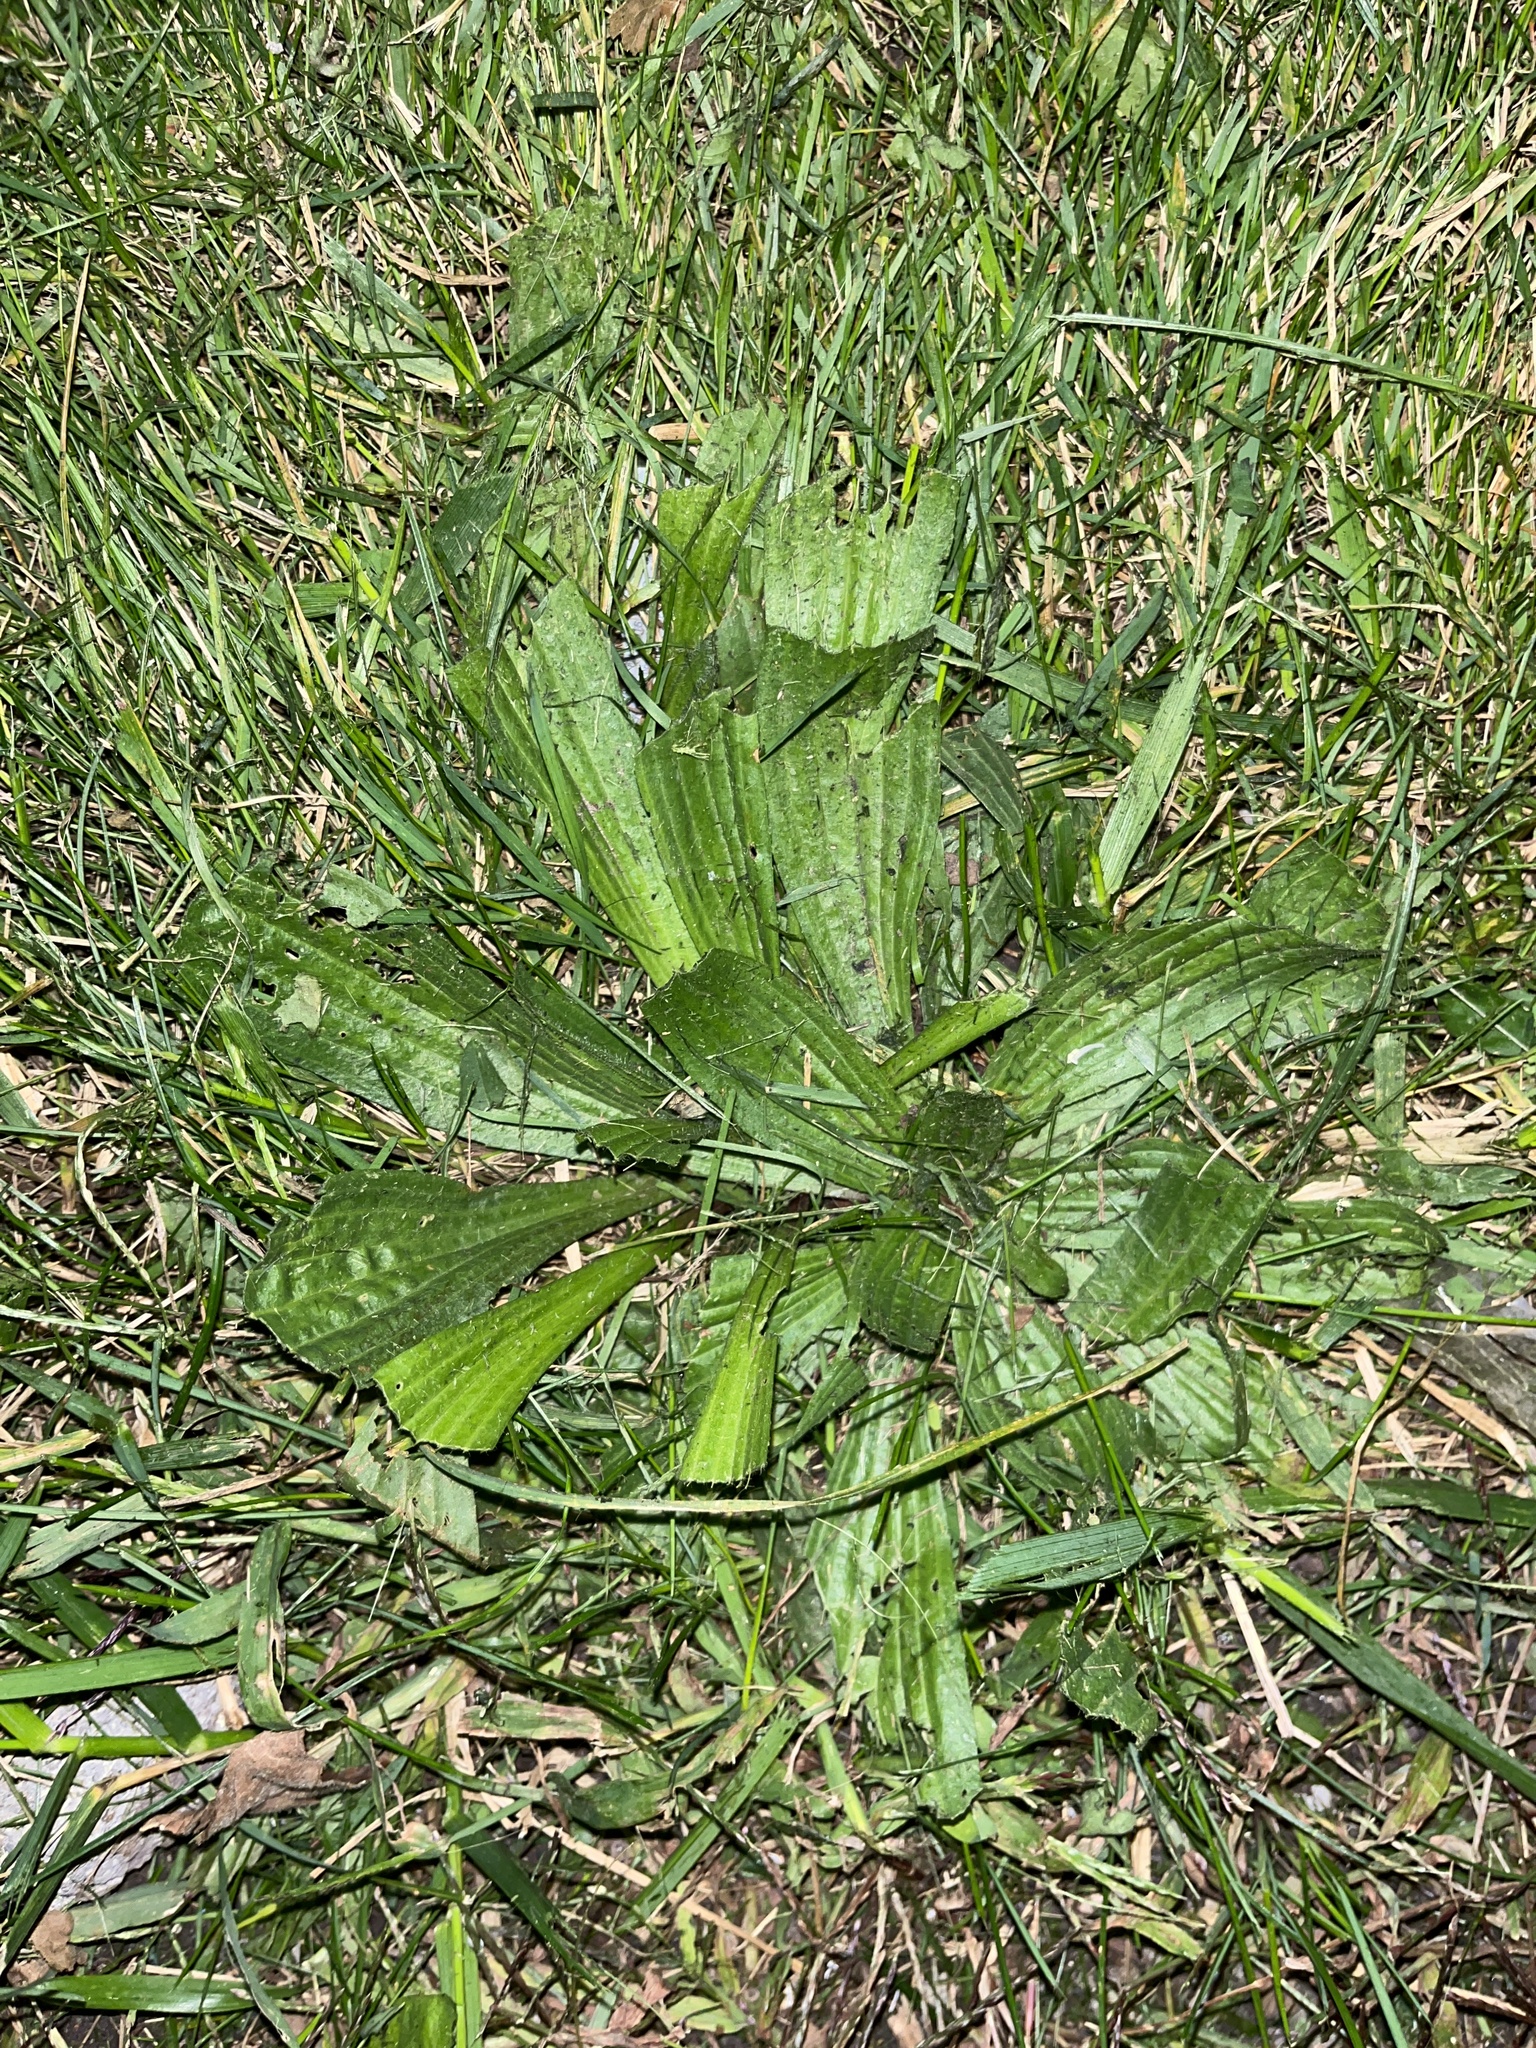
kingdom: Plantae
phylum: Tracheophyta
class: Magnoliopsida
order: Lamiales
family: Plantaginaceae
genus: Plantago
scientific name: Plantago lanceolata
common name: Ribwort plantain
